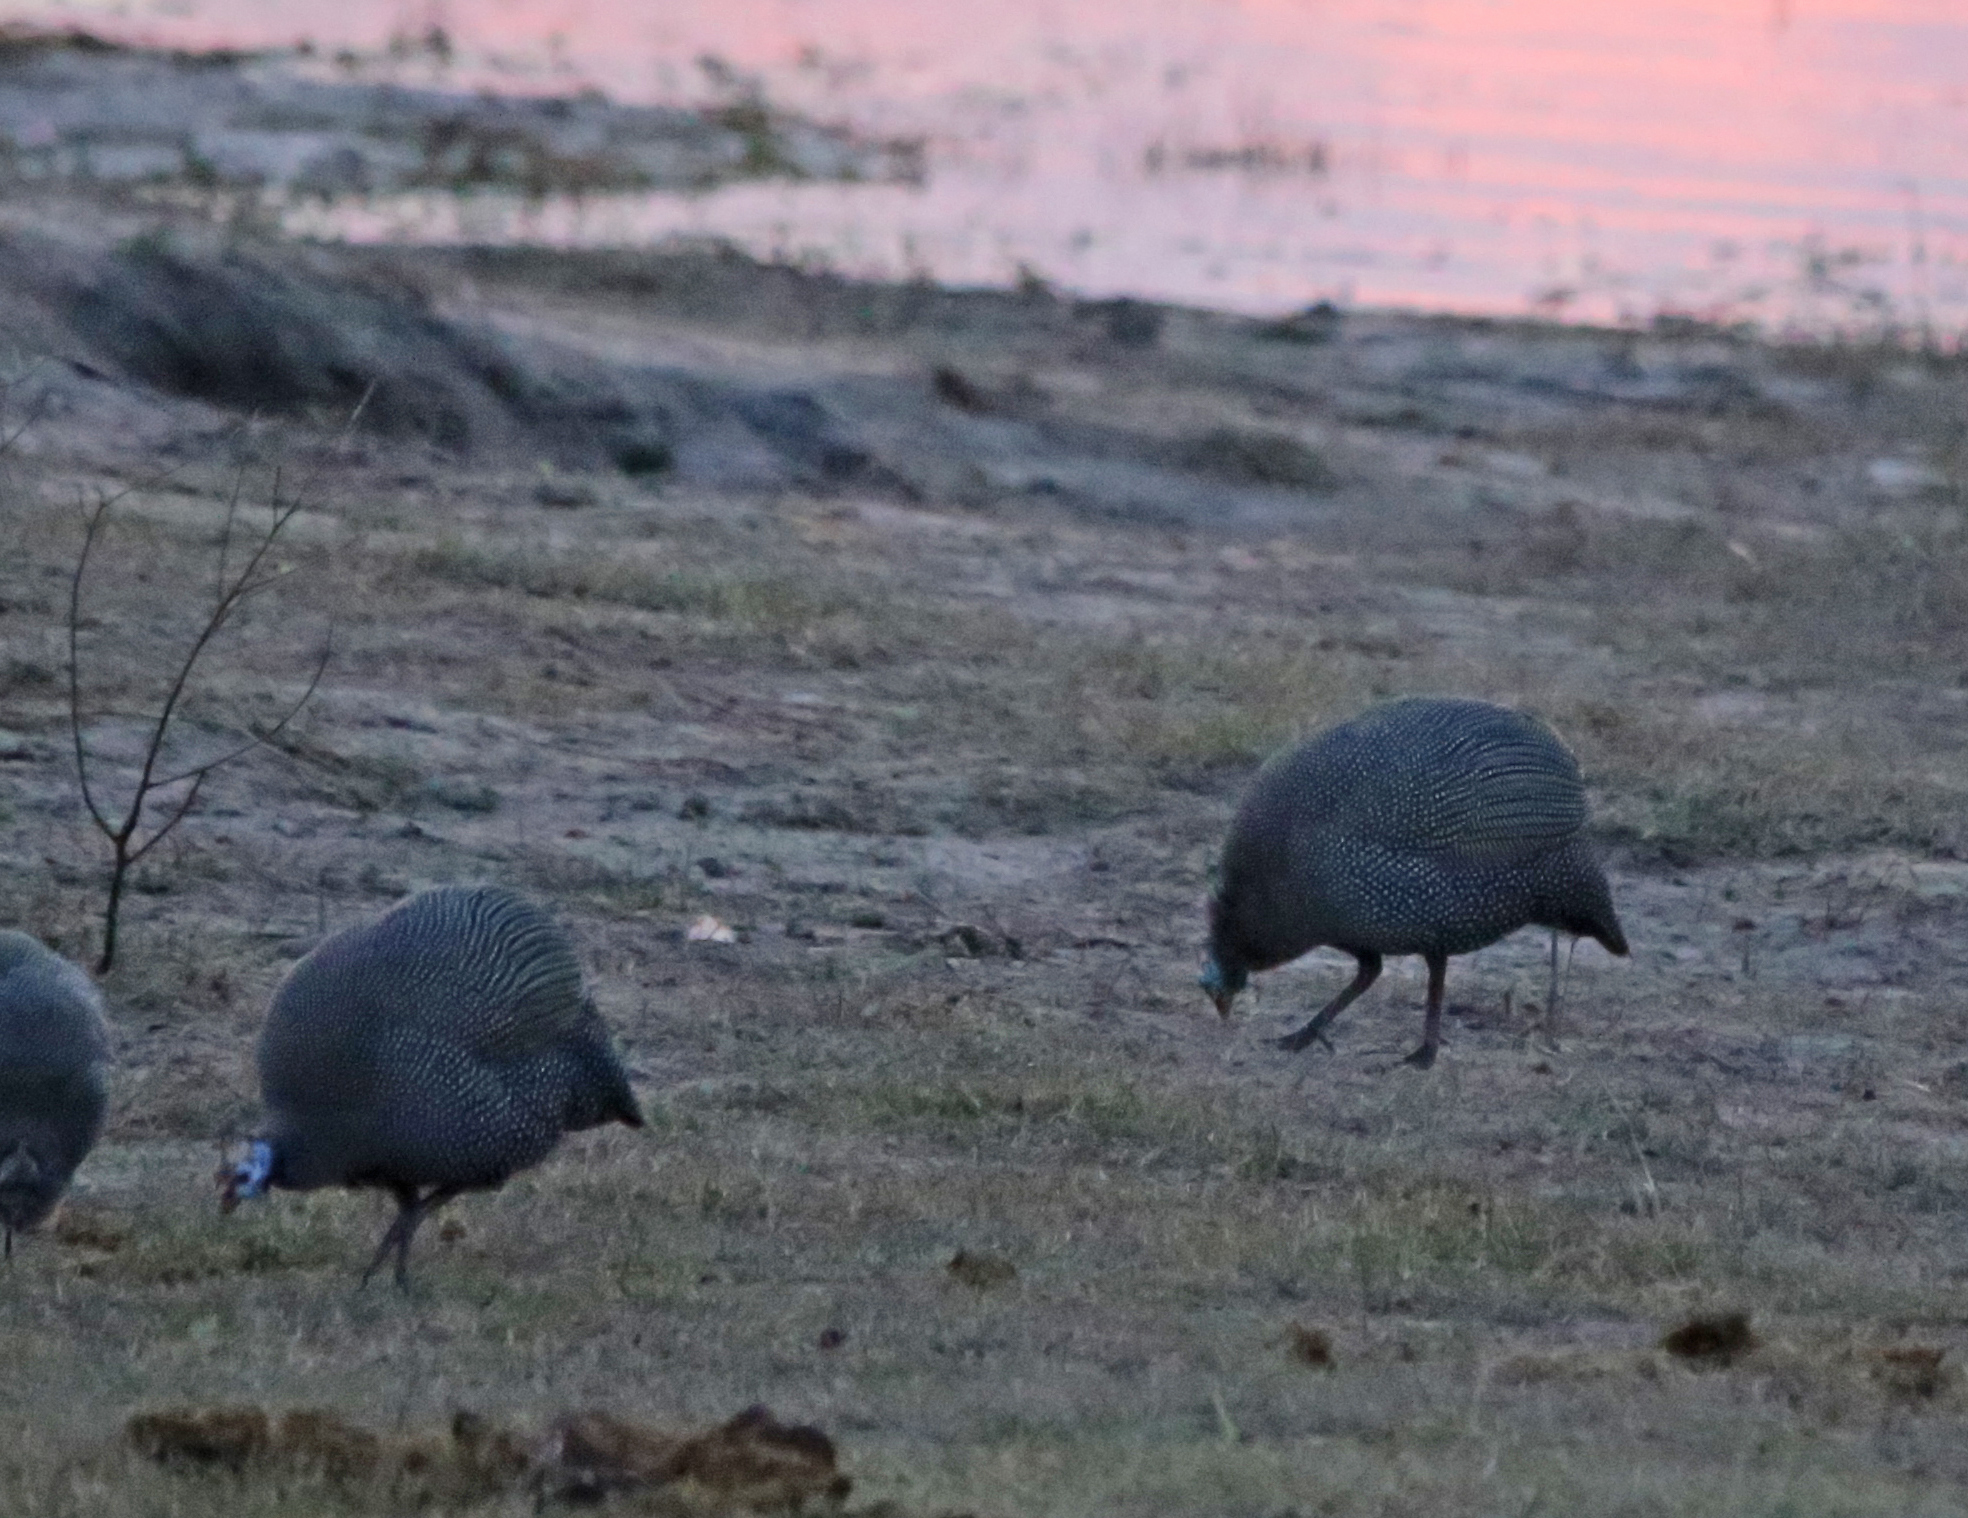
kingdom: Animalia
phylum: Chordata
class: Aves
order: Galliformes
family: Numididae
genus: Numida
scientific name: Numida meleagris
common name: Helmeted guineafowl
